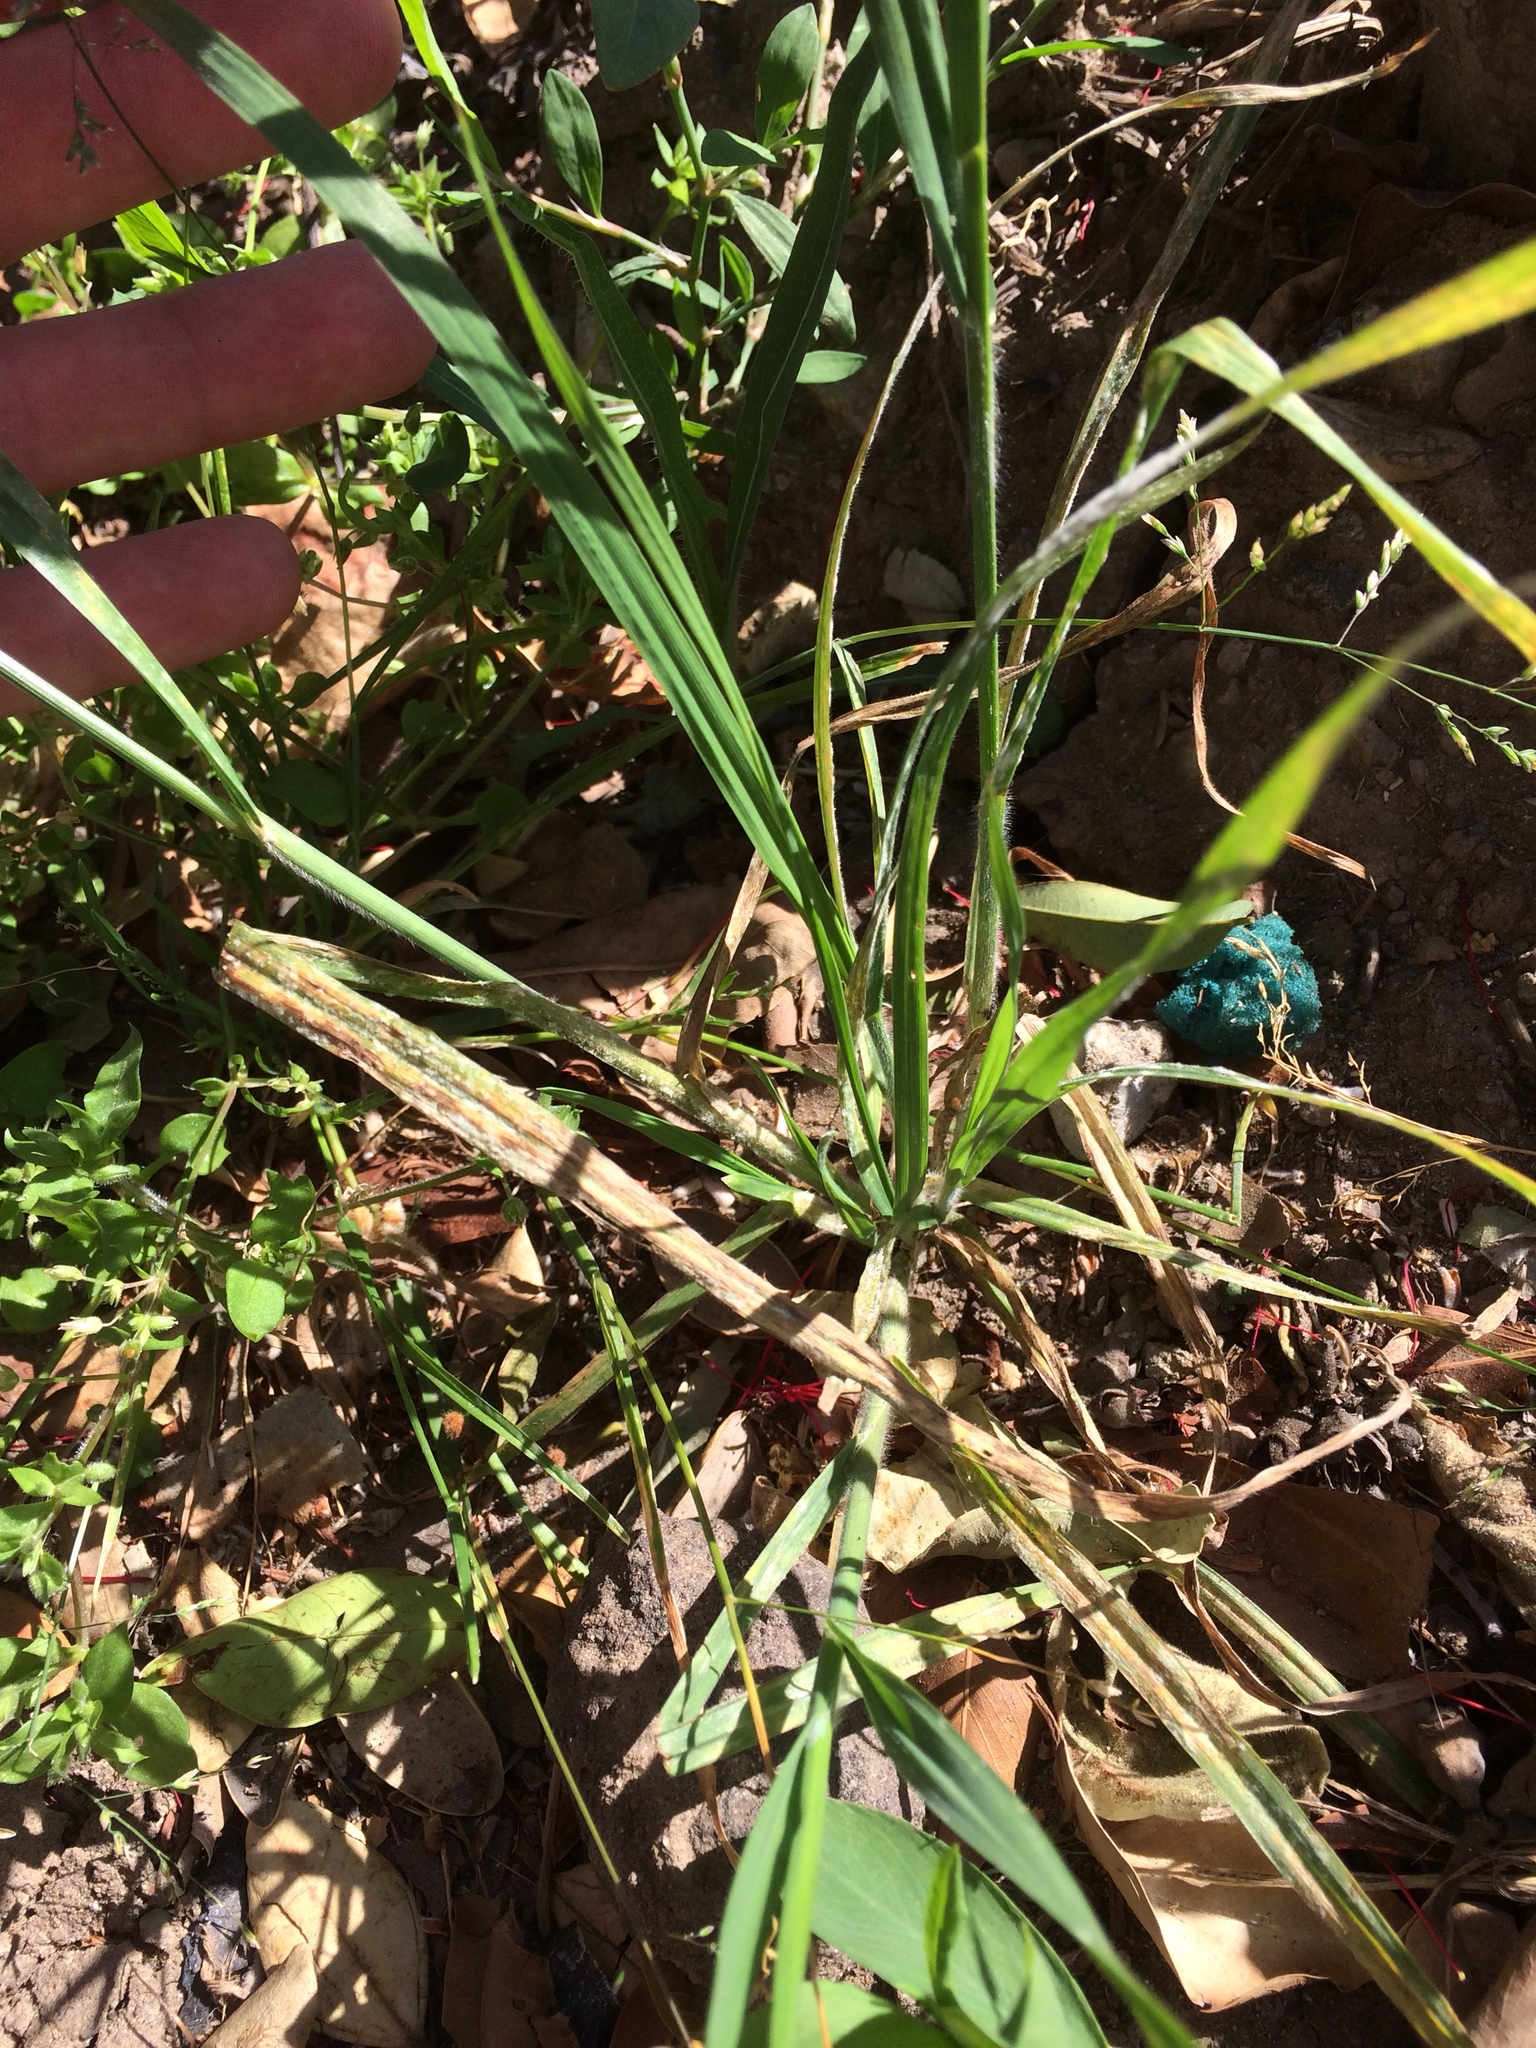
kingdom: Plantae
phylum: Tracheophyta
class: Liliopsida
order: Poales
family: Poaceae
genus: Bromus
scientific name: Bromus catharticus
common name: Rescuegrass
